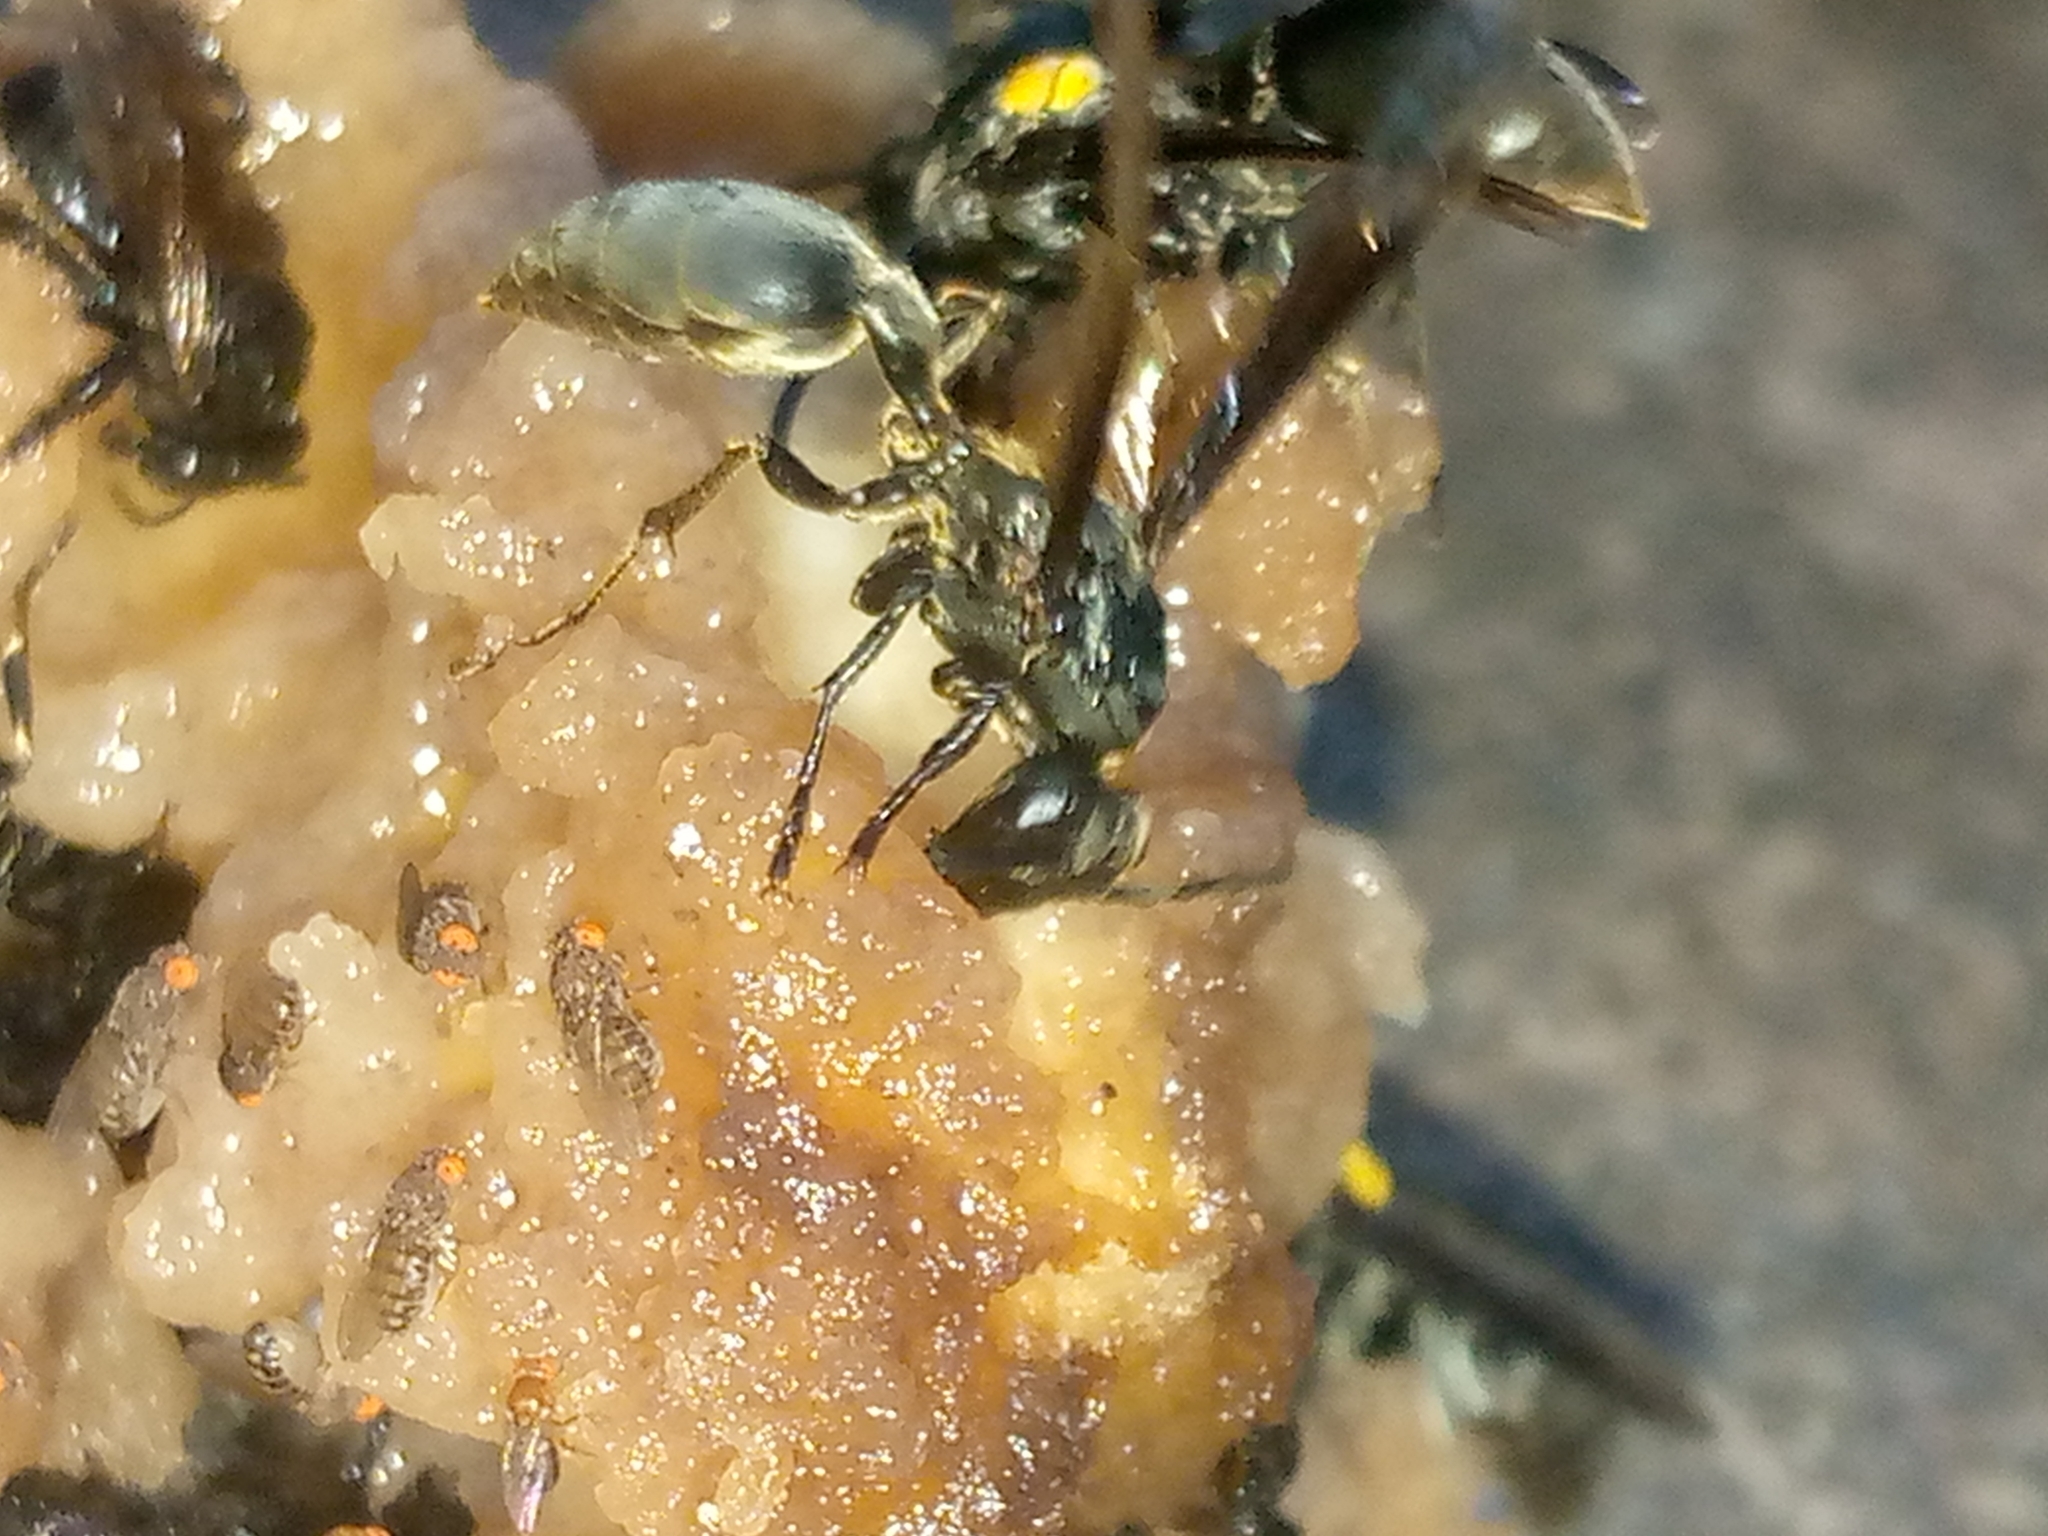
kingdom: Animalia
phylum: Arthropoda
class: Insecta
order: Hymenoptera
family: Eumenidae
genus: Polybia
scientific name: Polybia ignobilis
